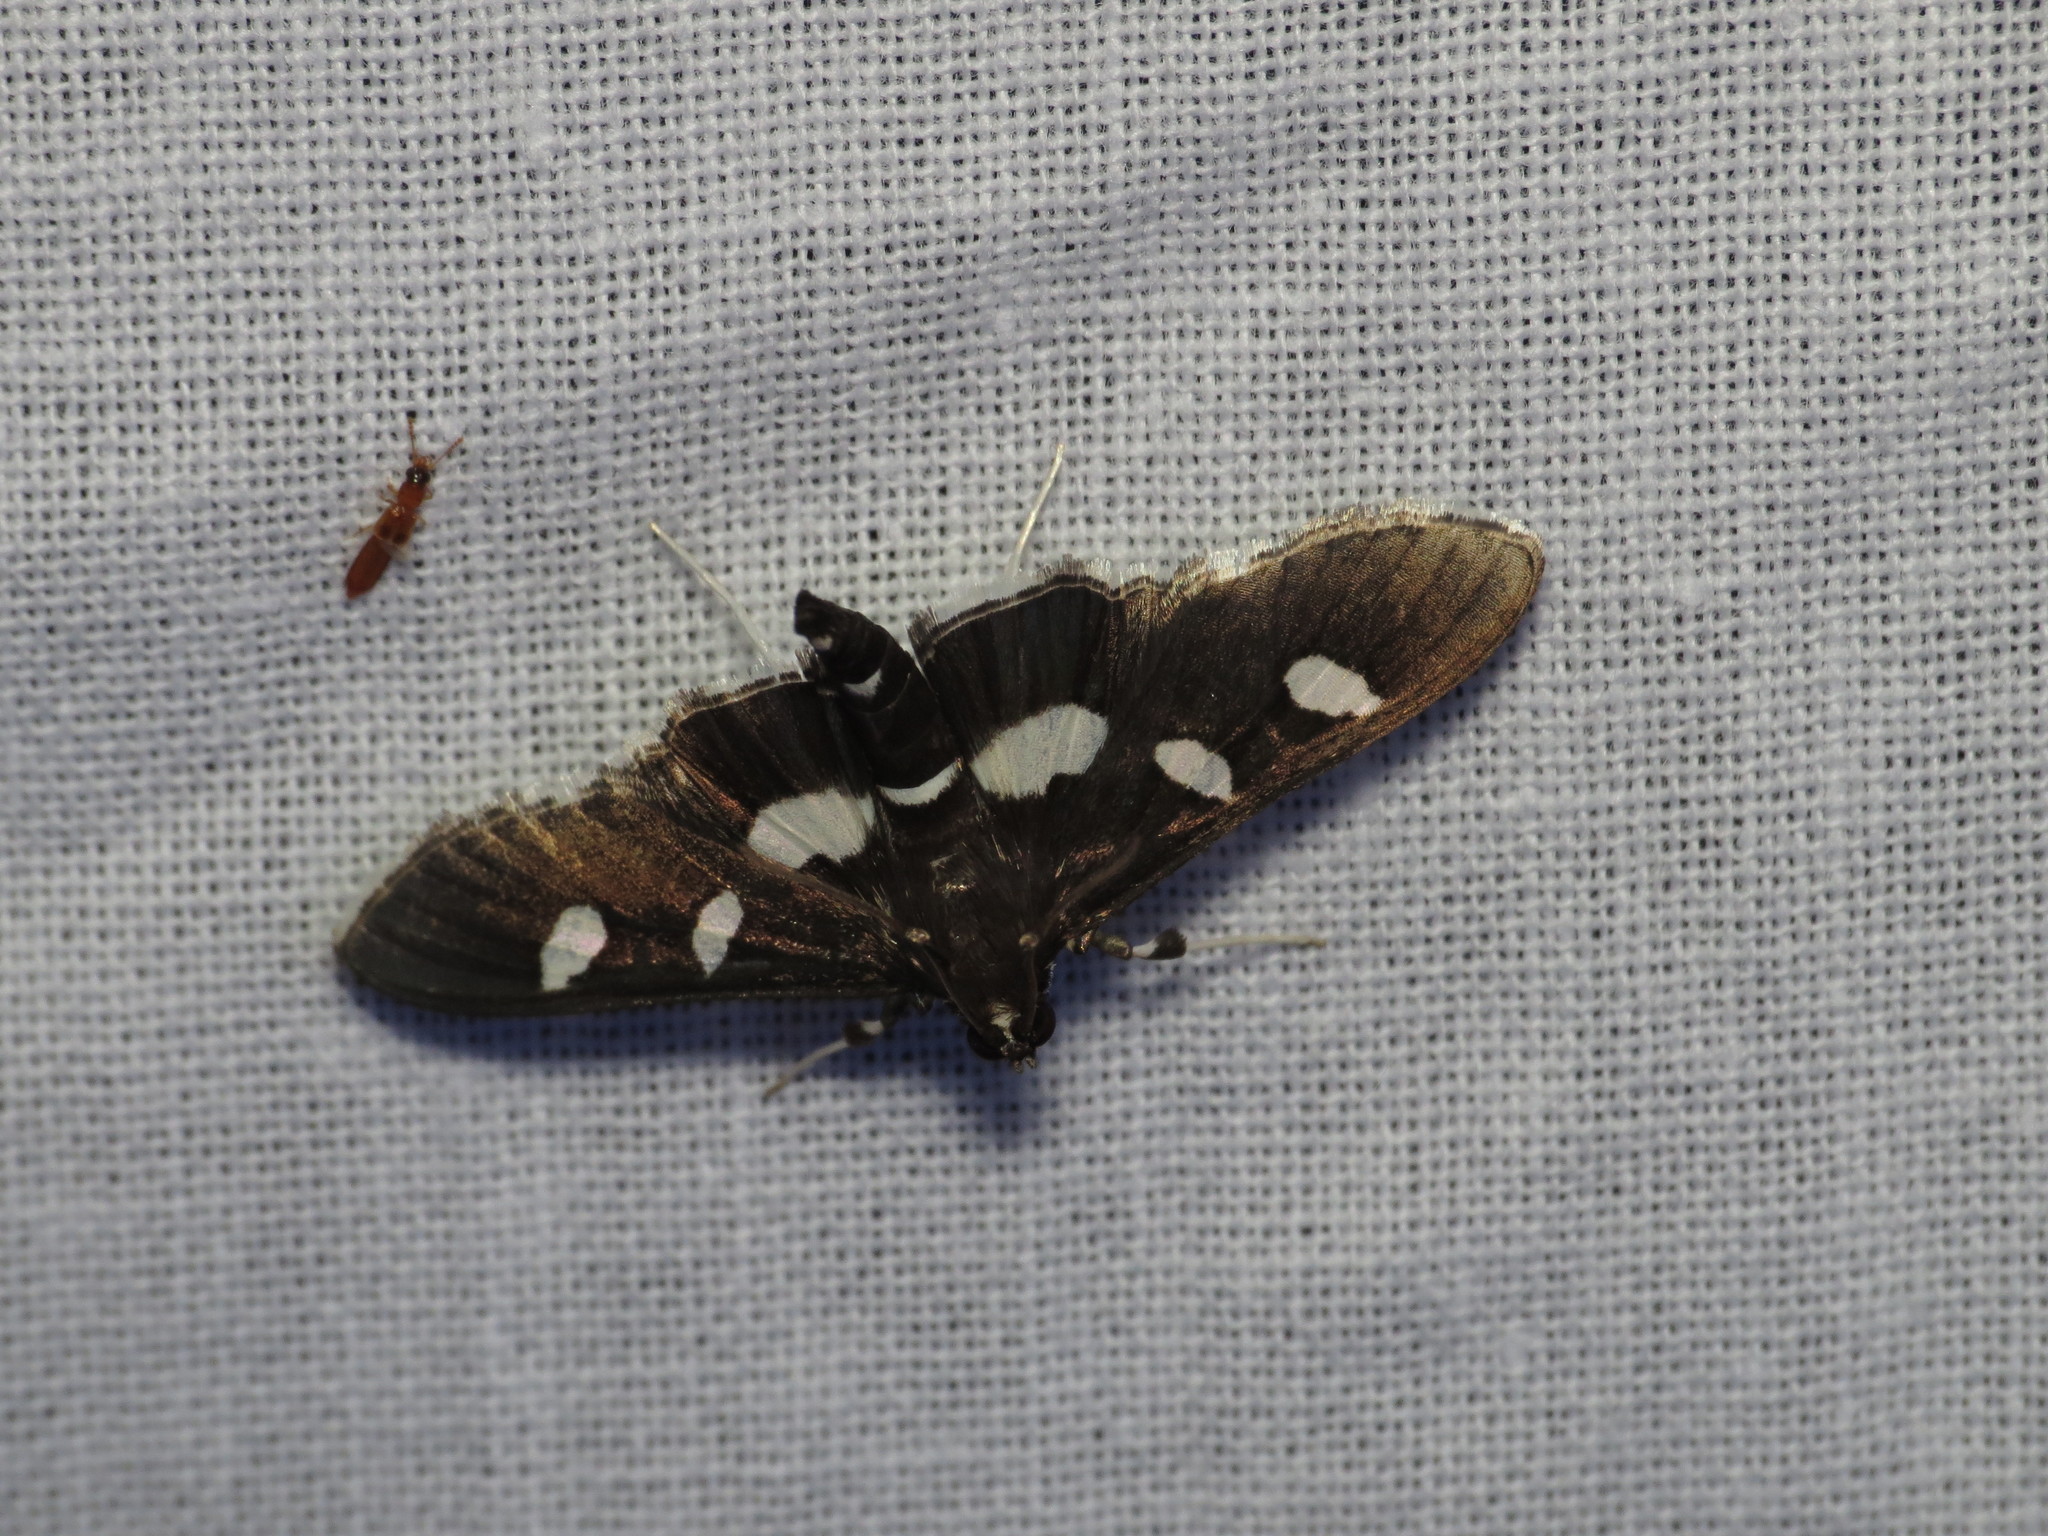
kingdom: Animalia
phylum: Arthropoda
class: Insecta
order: Lepidoptera
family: Crambidae
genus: Desmia
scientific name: Desmia
